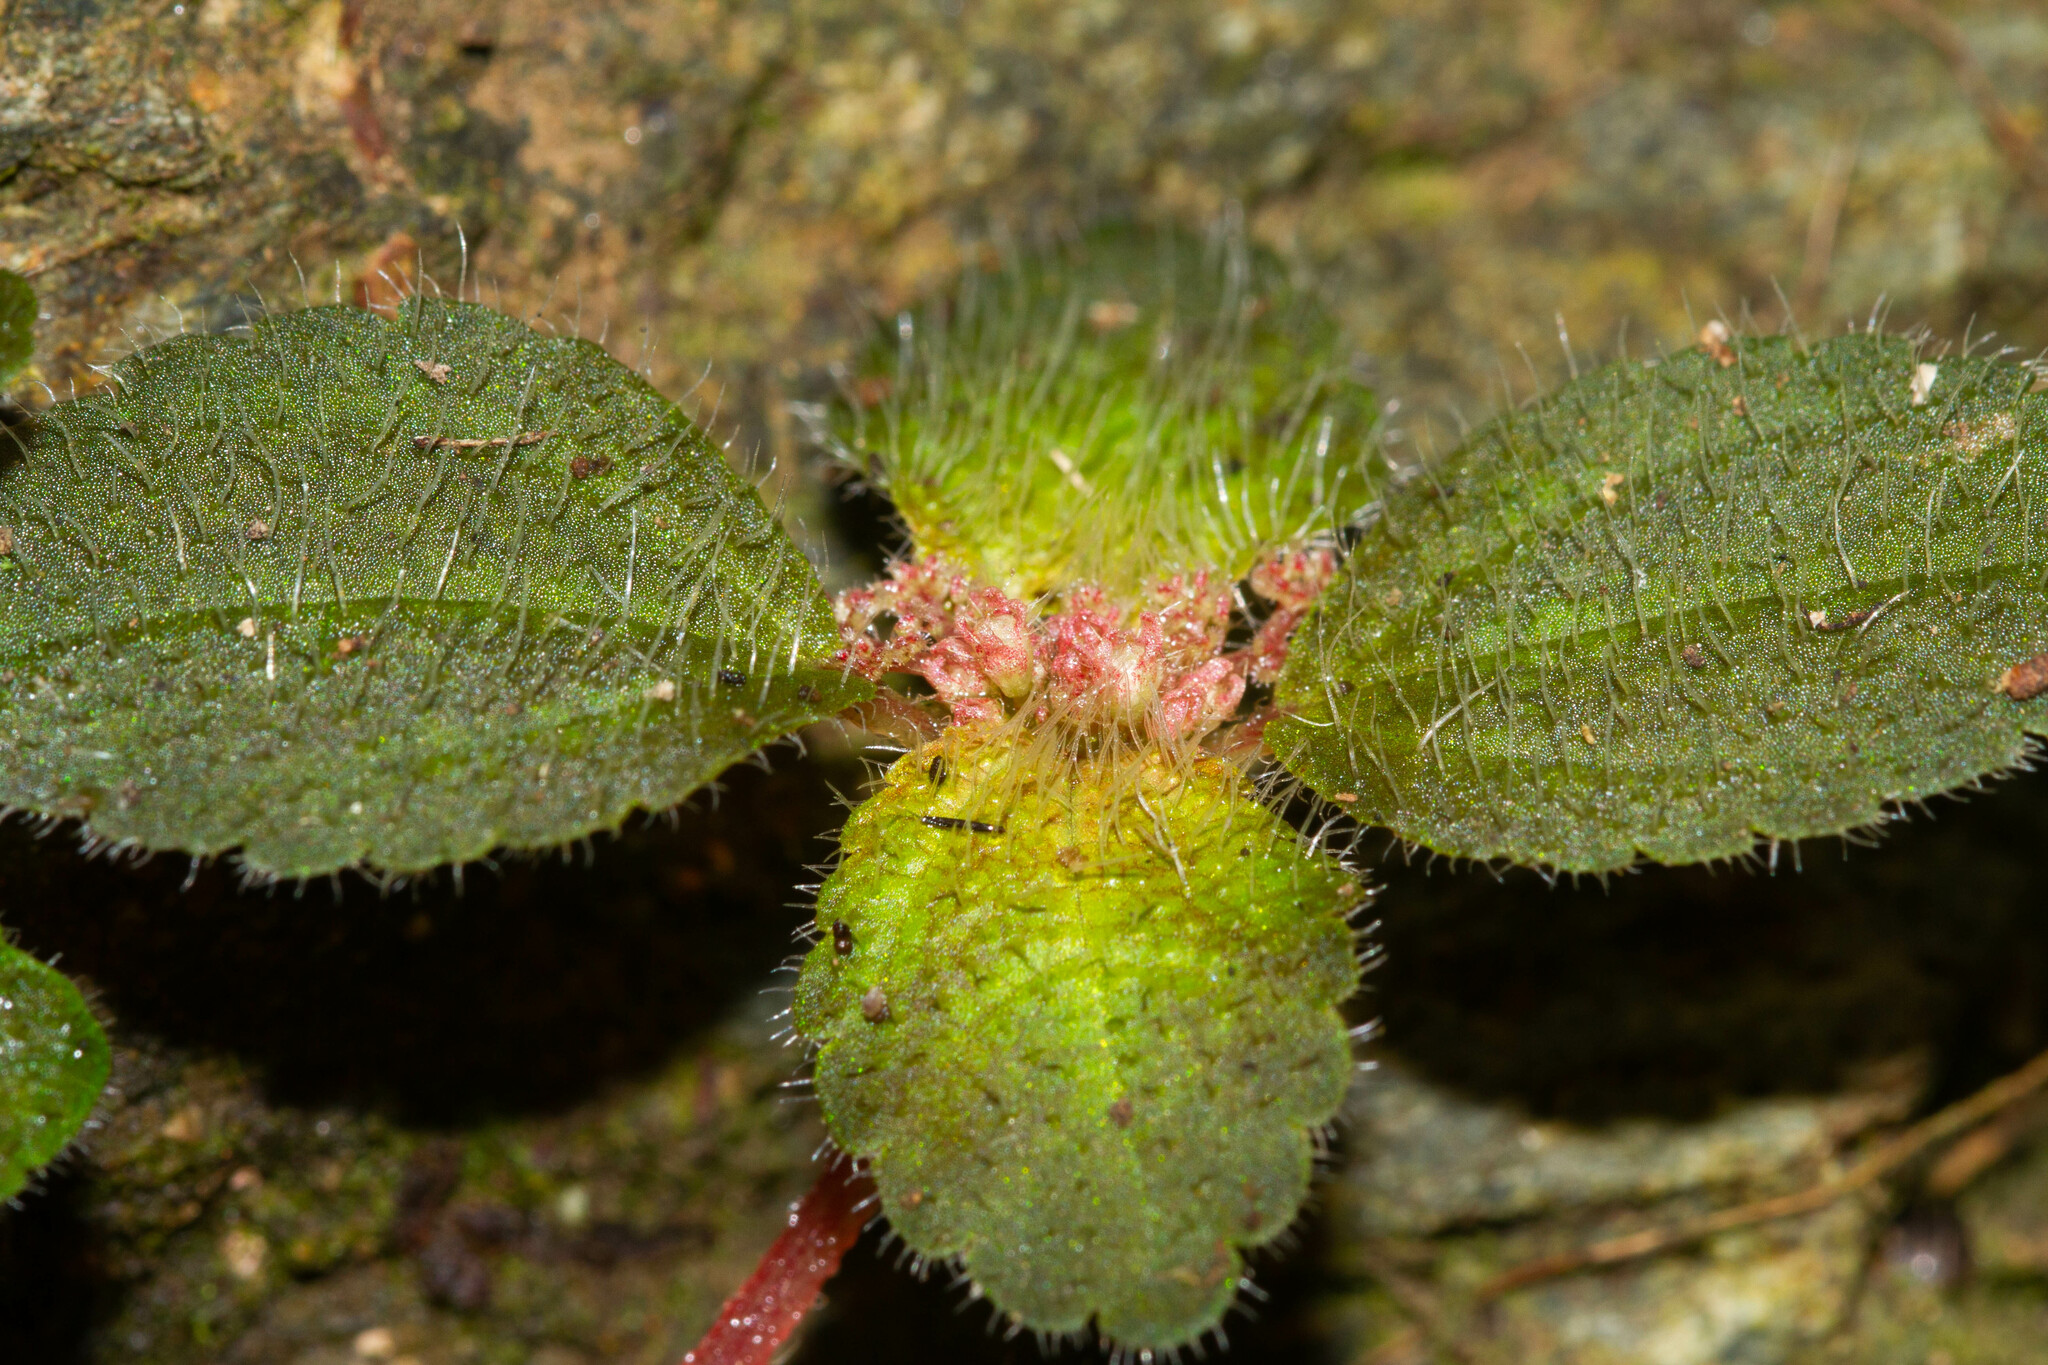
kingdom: Plantae
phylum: Tracheophyta
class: Magnoliopsida
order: Rosales
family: Urticaceae
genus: Pilea
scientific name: Pilea pubescens
